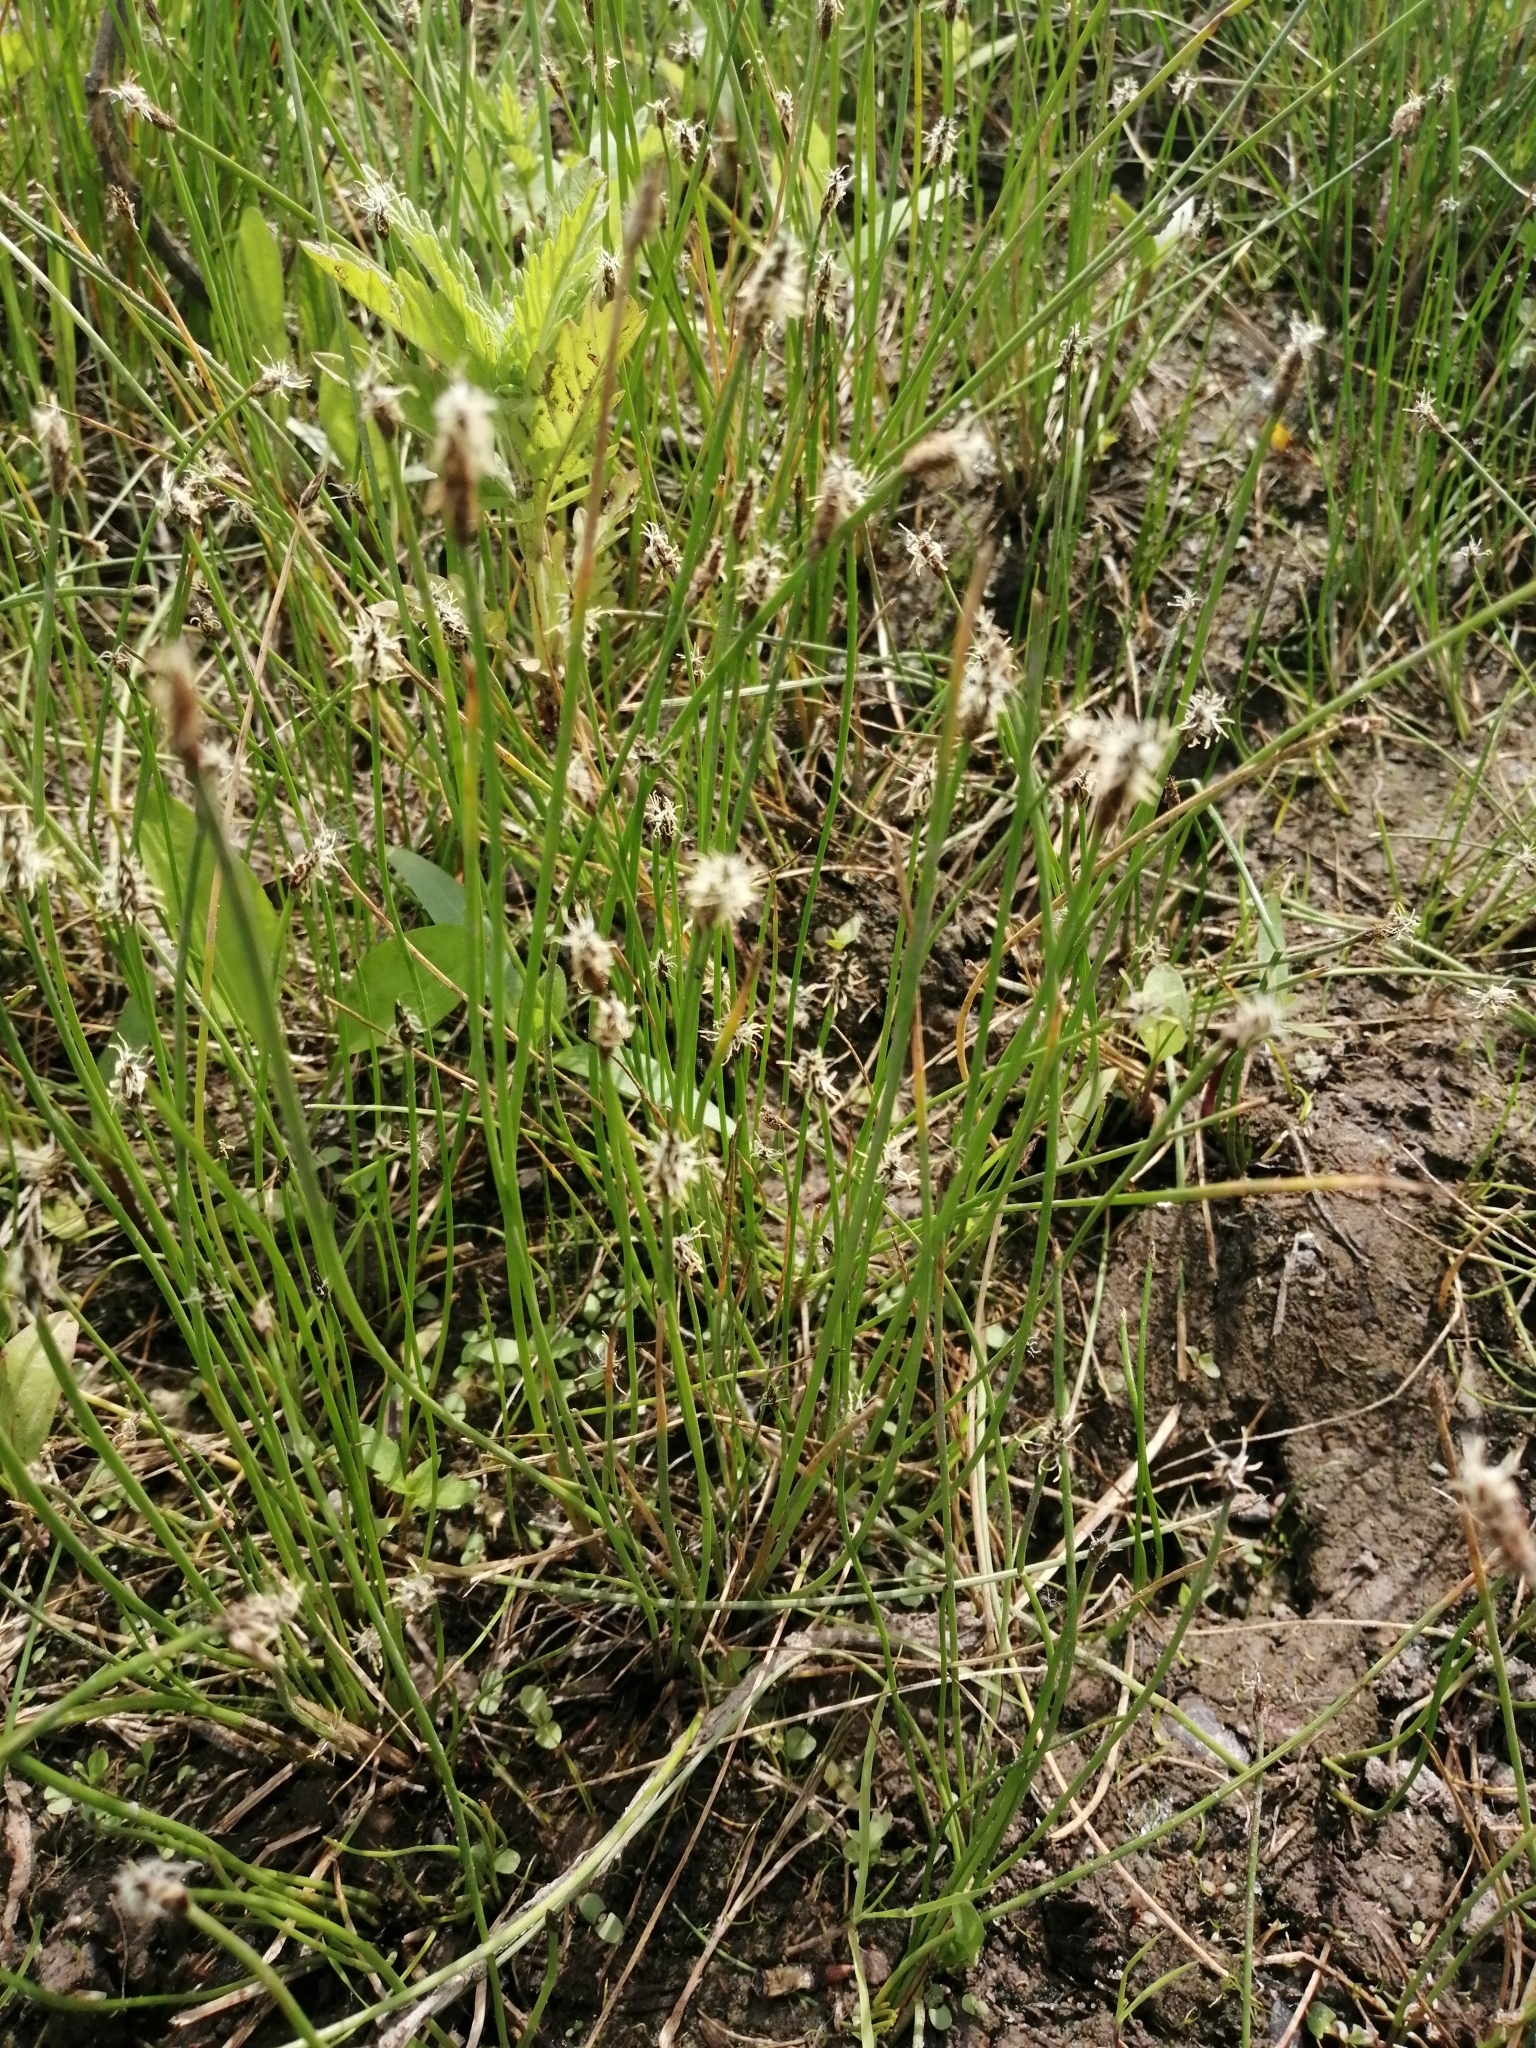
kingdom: Plantae
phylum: Tracheophyta
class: Liliopsida
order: Poales
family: Cyperaceae
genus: Eleocharis
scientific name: Eleocharis uniglumis
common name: Slender spike-rush
